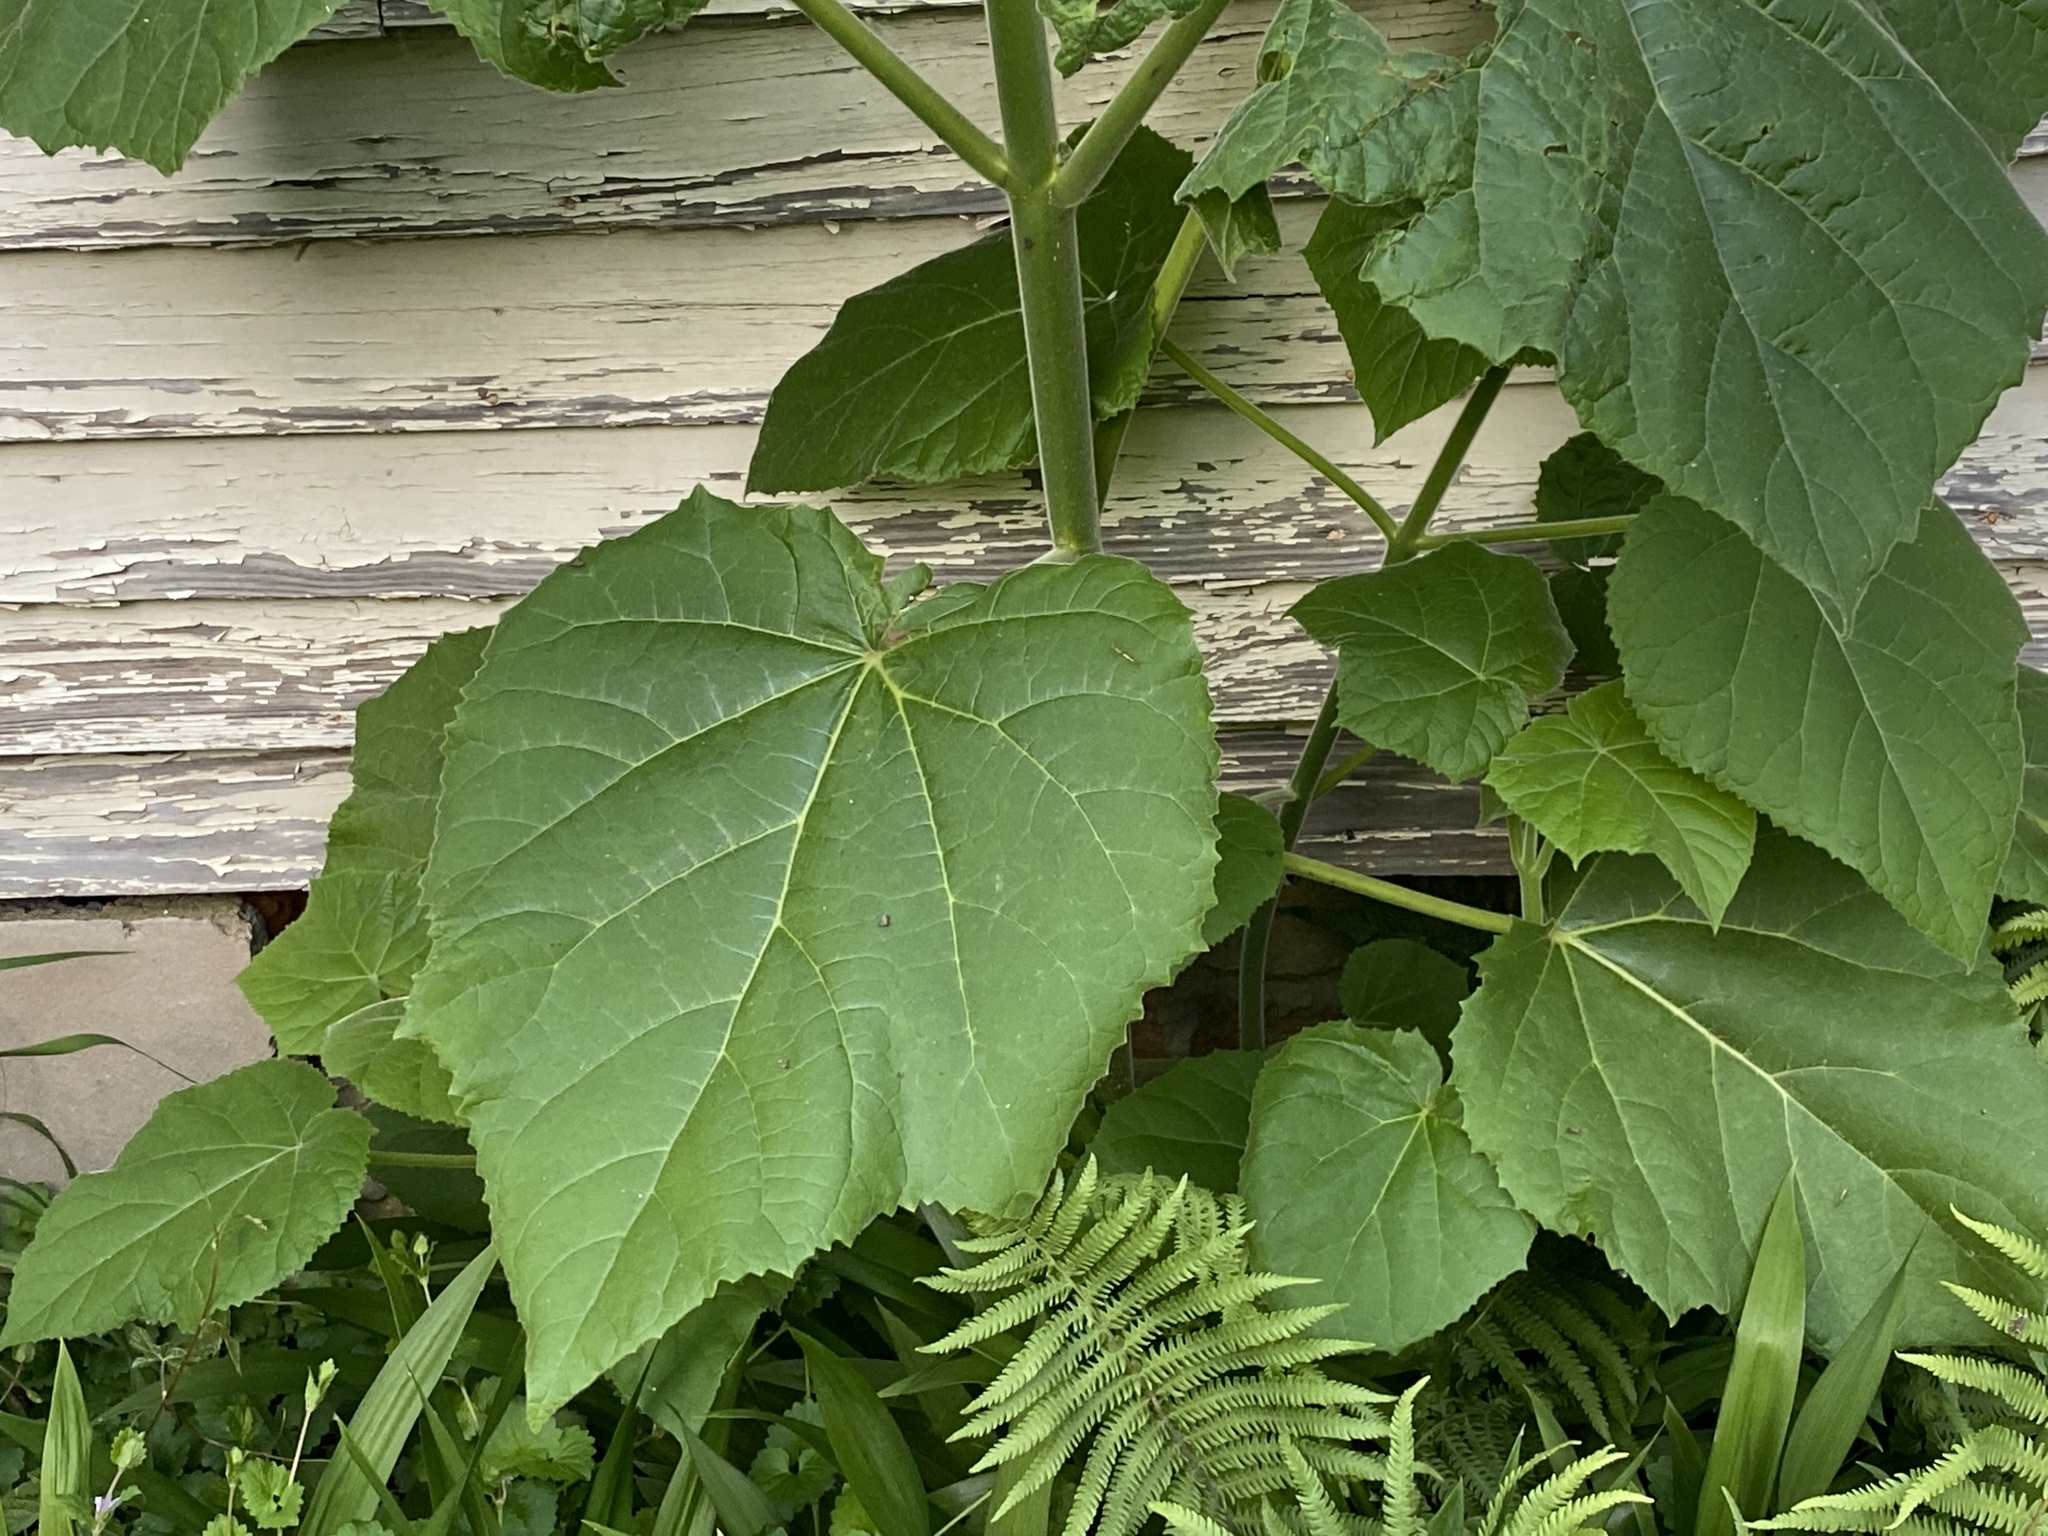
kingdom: Plantae
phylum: Tracheophyta
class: Magnoliopsida
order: Lamiales
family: Paulowniaceae
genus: Paulownia
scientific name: Paulownia tomentosa
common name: Foxglove-tree
